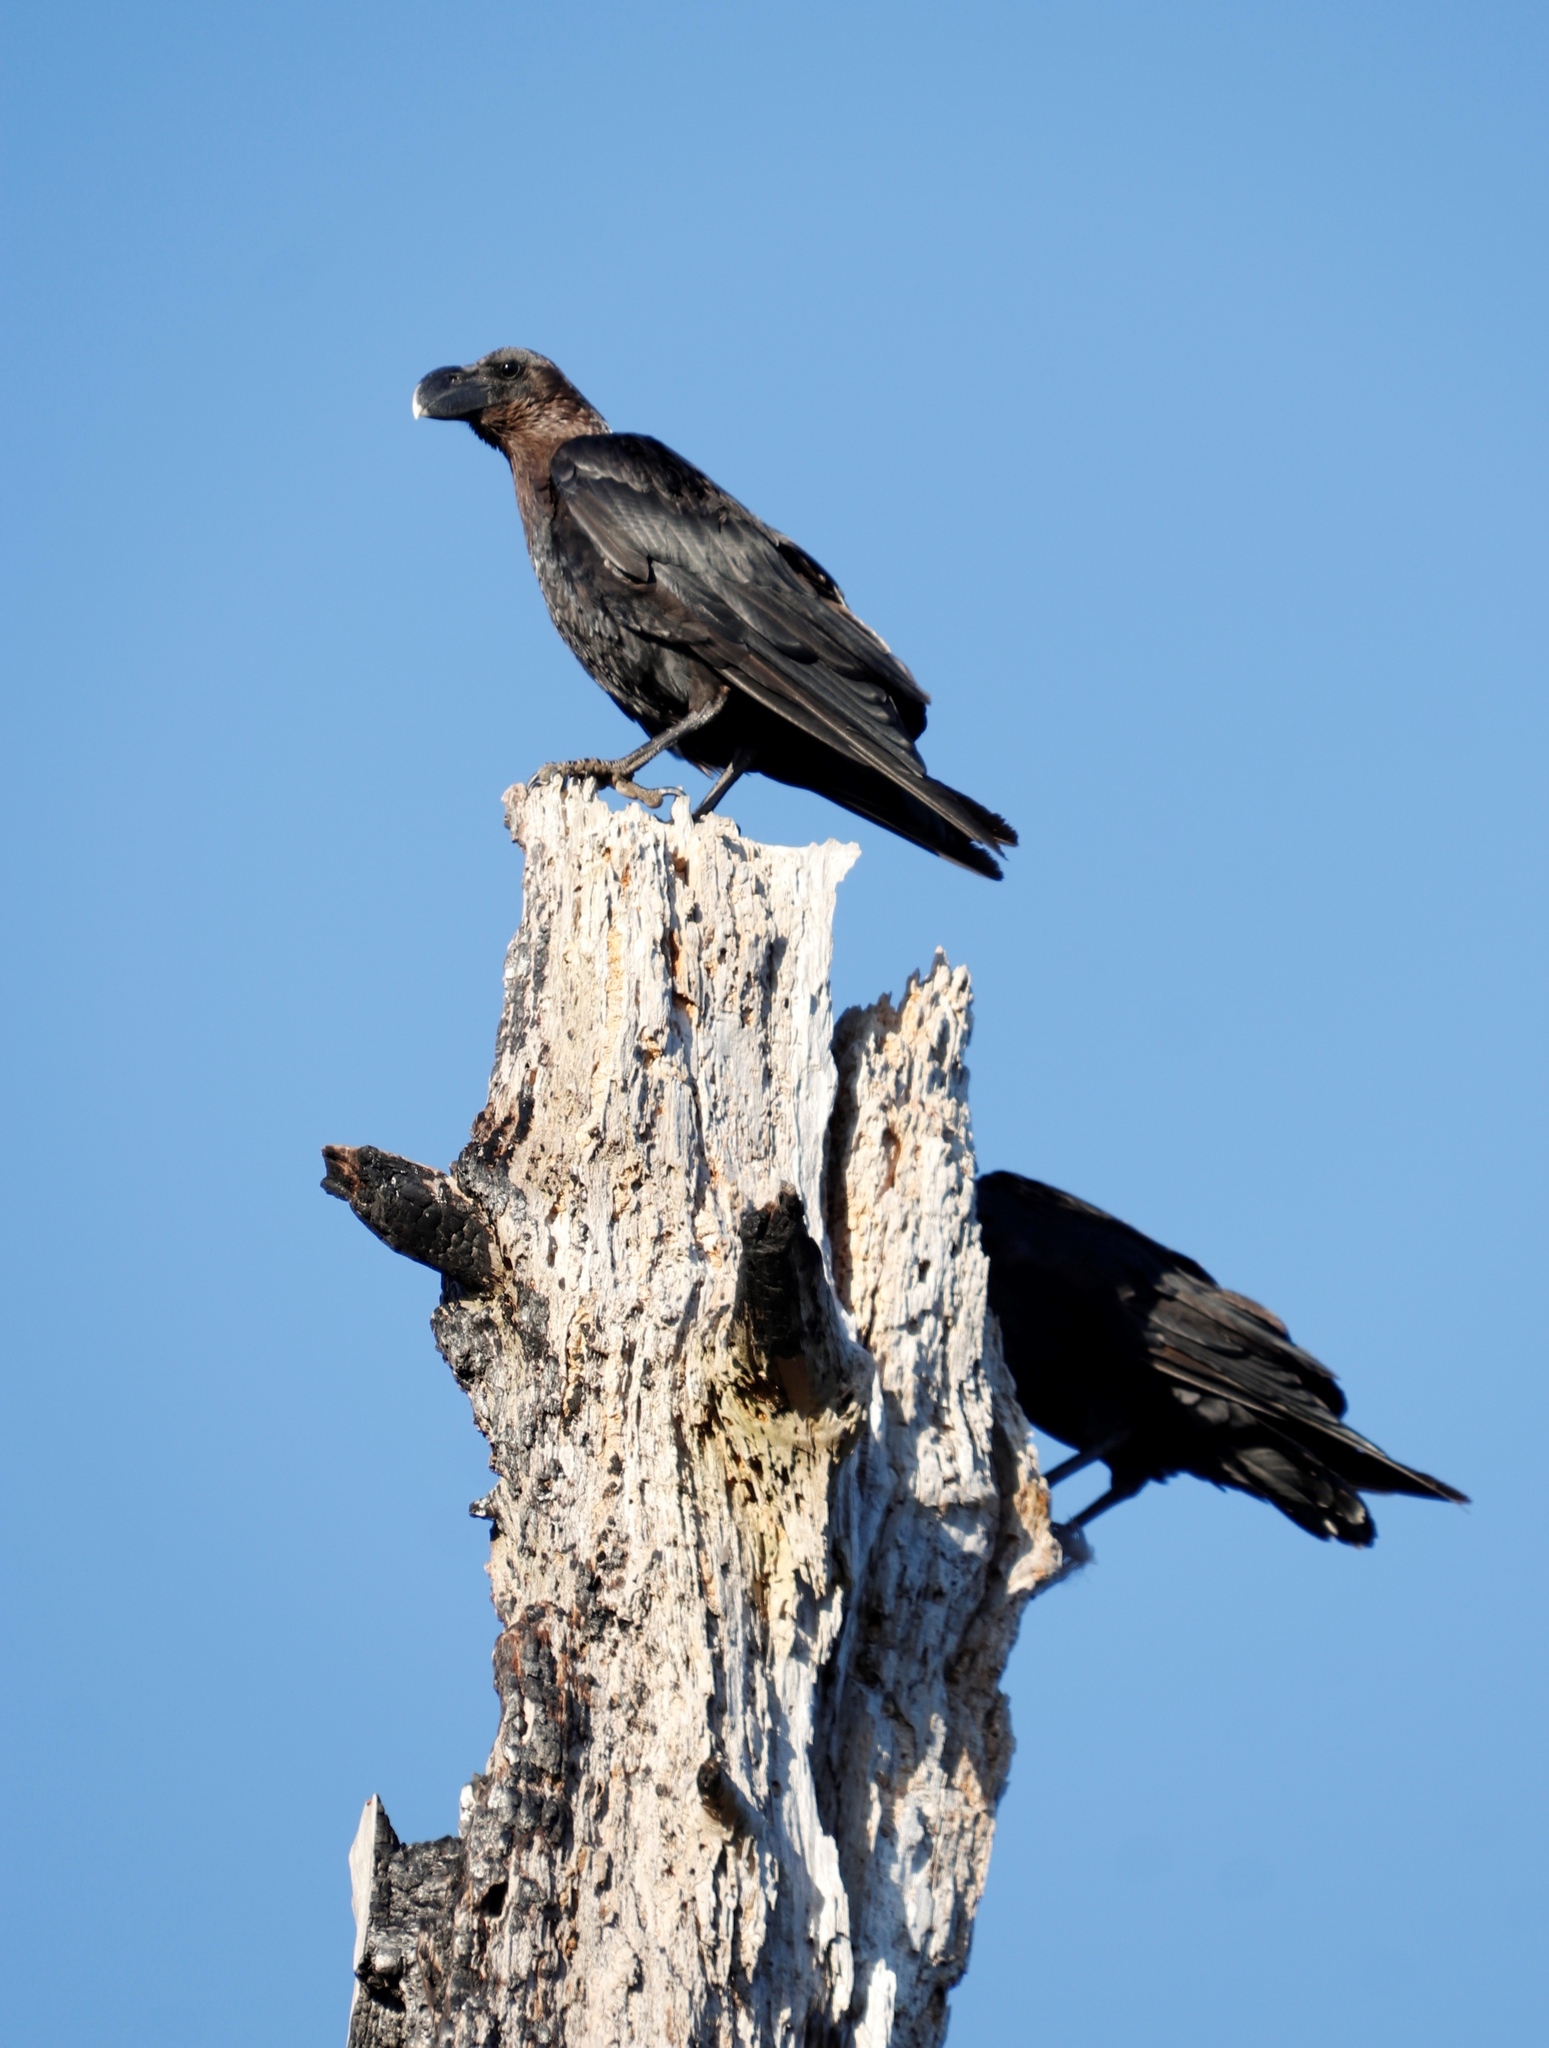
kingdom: Animalia
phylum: Chordata
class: Aves
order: Passeriformes
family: Corvidae
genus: Corvus
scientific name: Corvus albicollis
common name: White-necked raven
